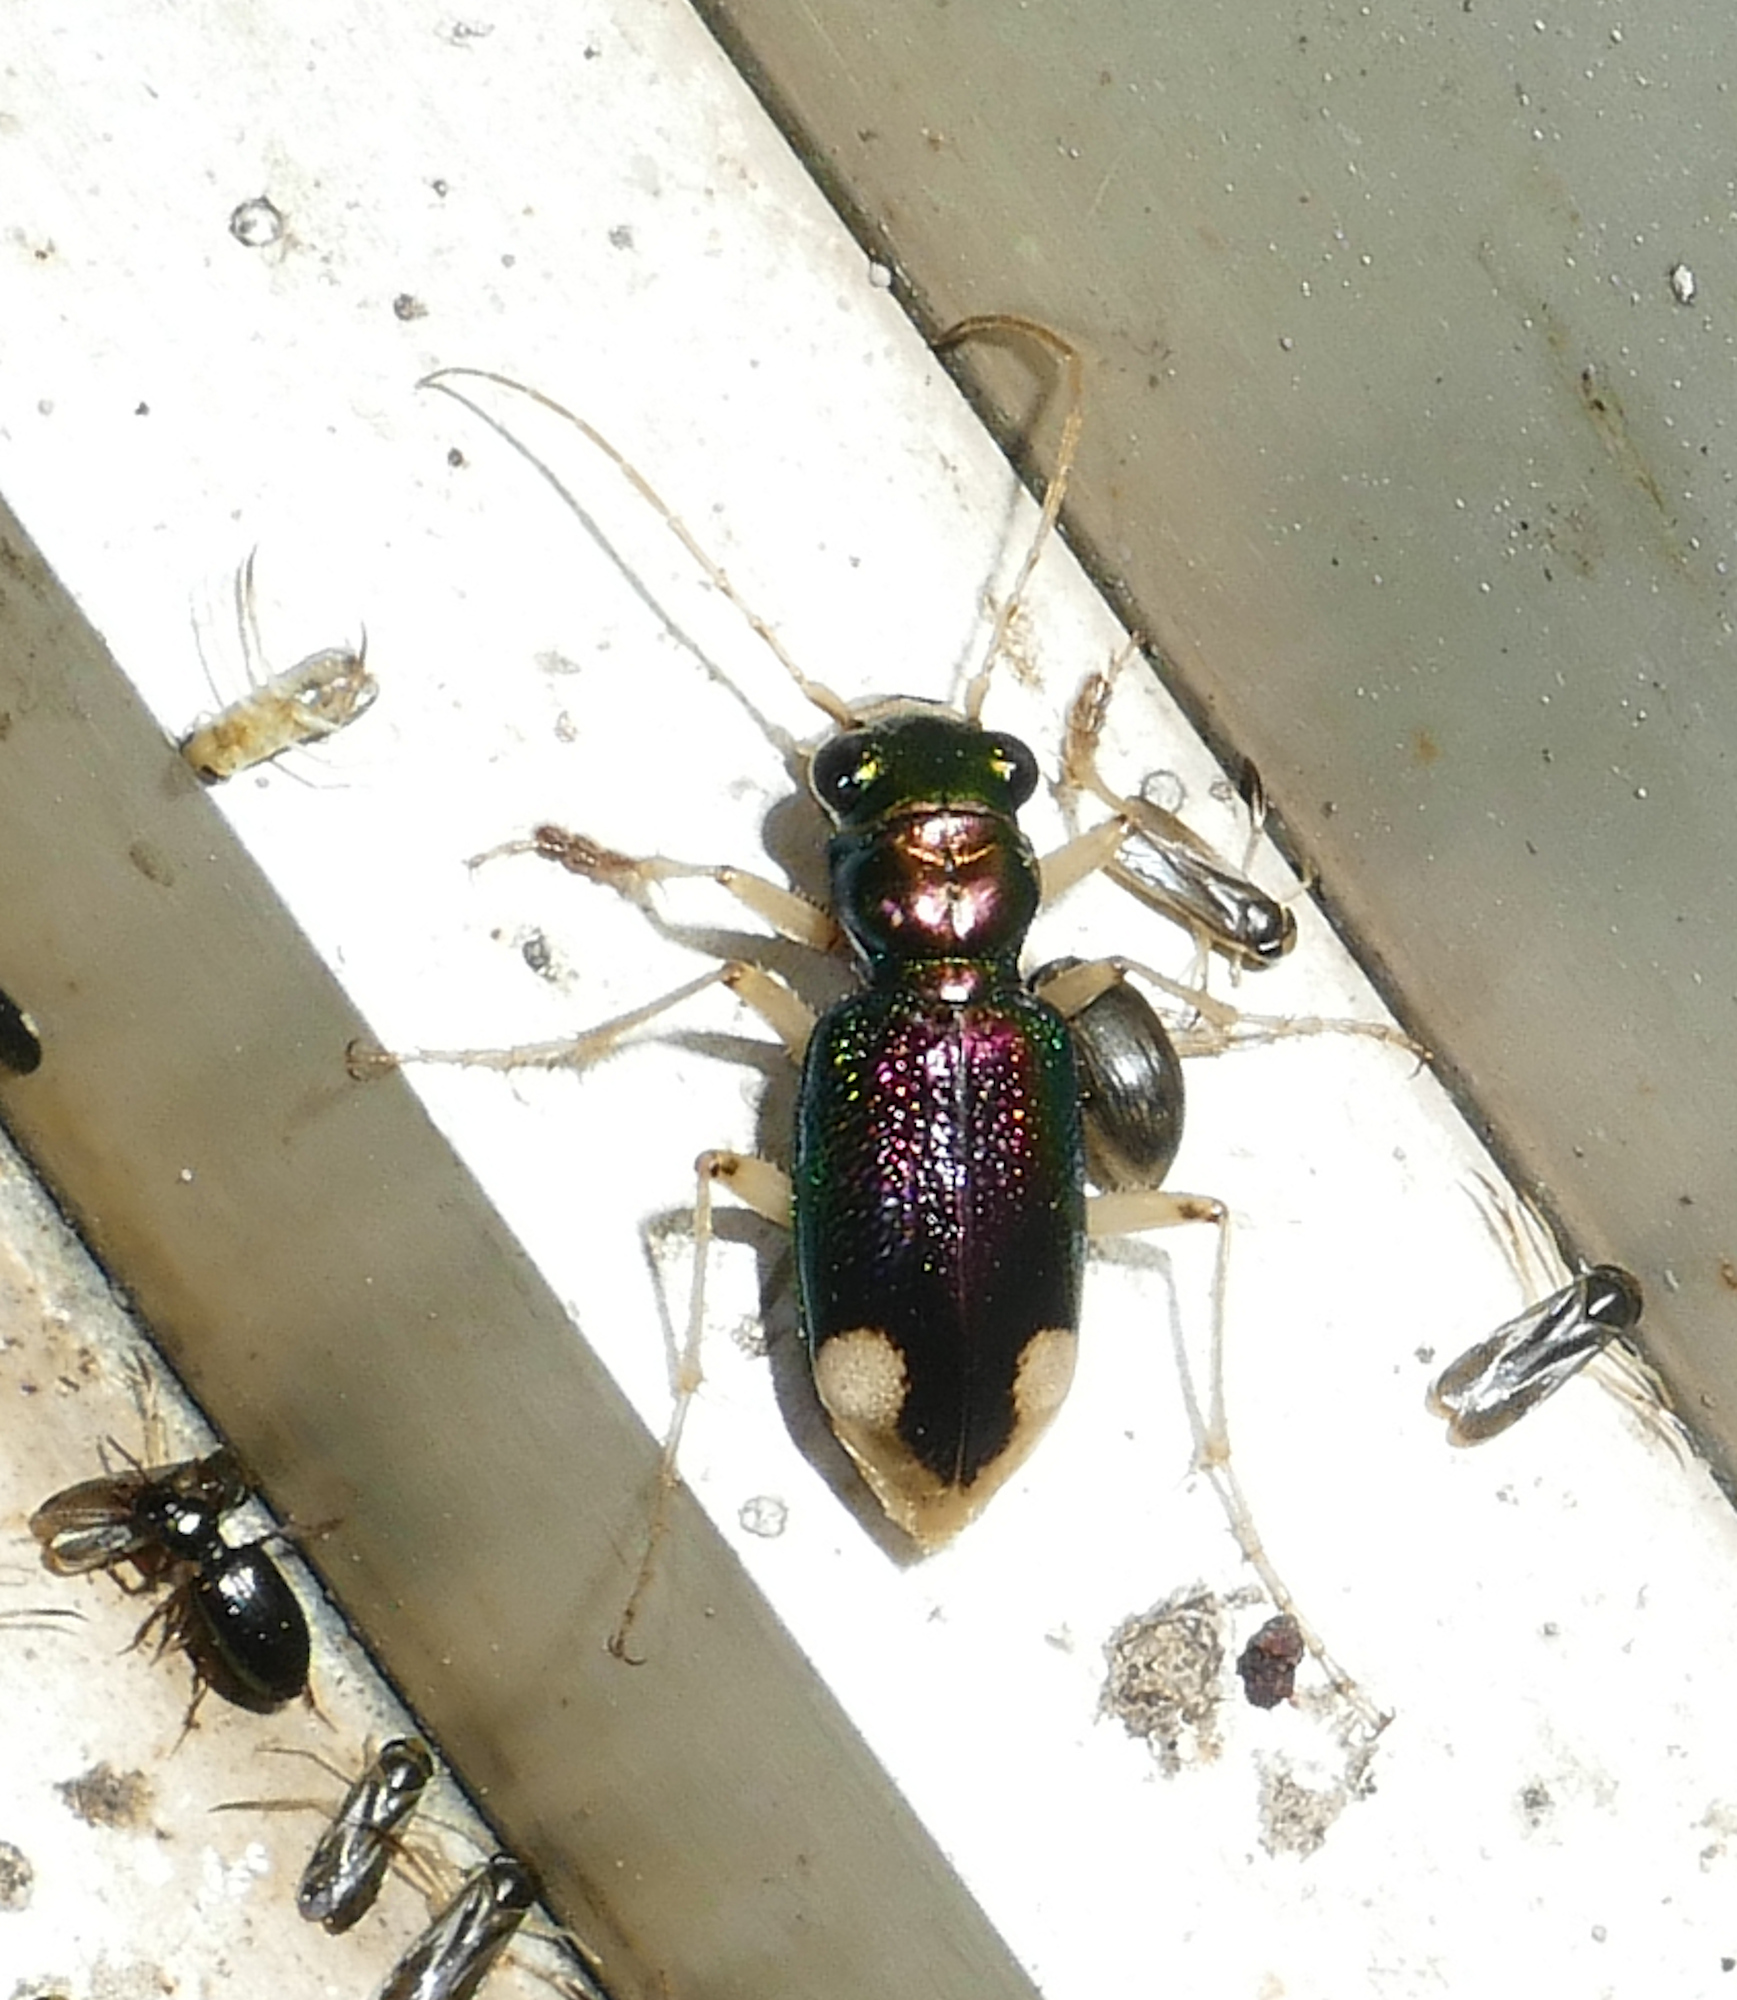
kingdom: Animalia
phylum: Arthropoda
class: Insecta
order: Coleoptera
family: Carabidae
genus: Tetracha
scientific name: Tetracha carolina
